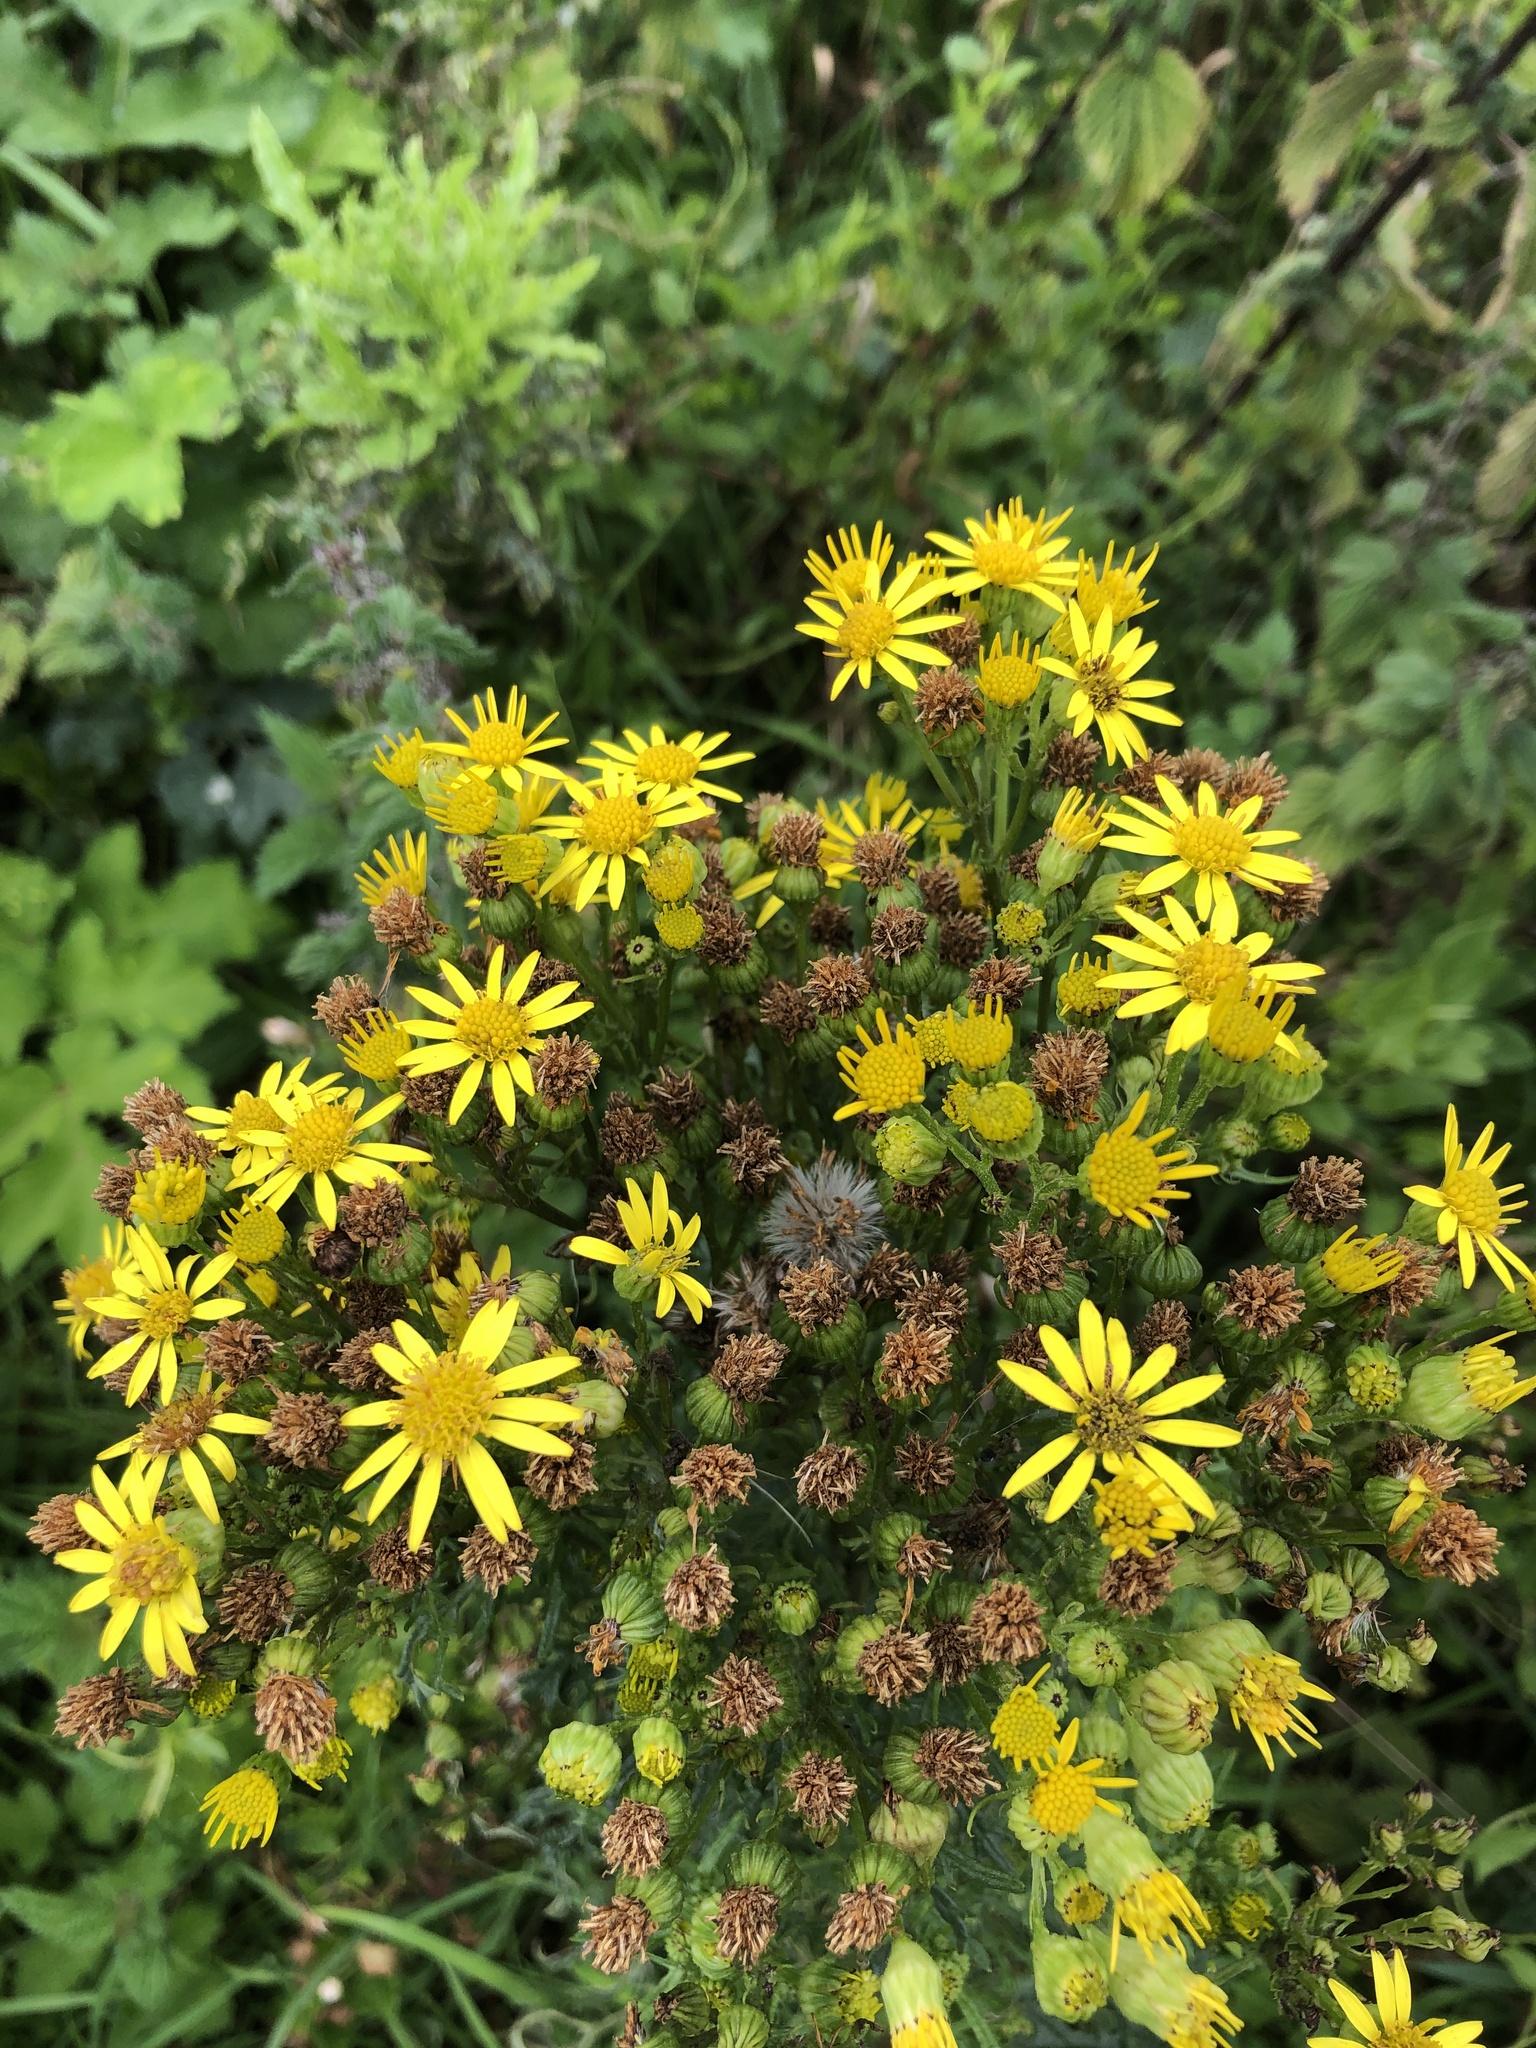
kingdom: Plantae
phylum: Tracheophyta
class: Magnoliopsida
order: Asterales
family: Asteraceae
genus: Jacobaea
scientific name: Jacobaea vulgaris
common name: Stinking willie
